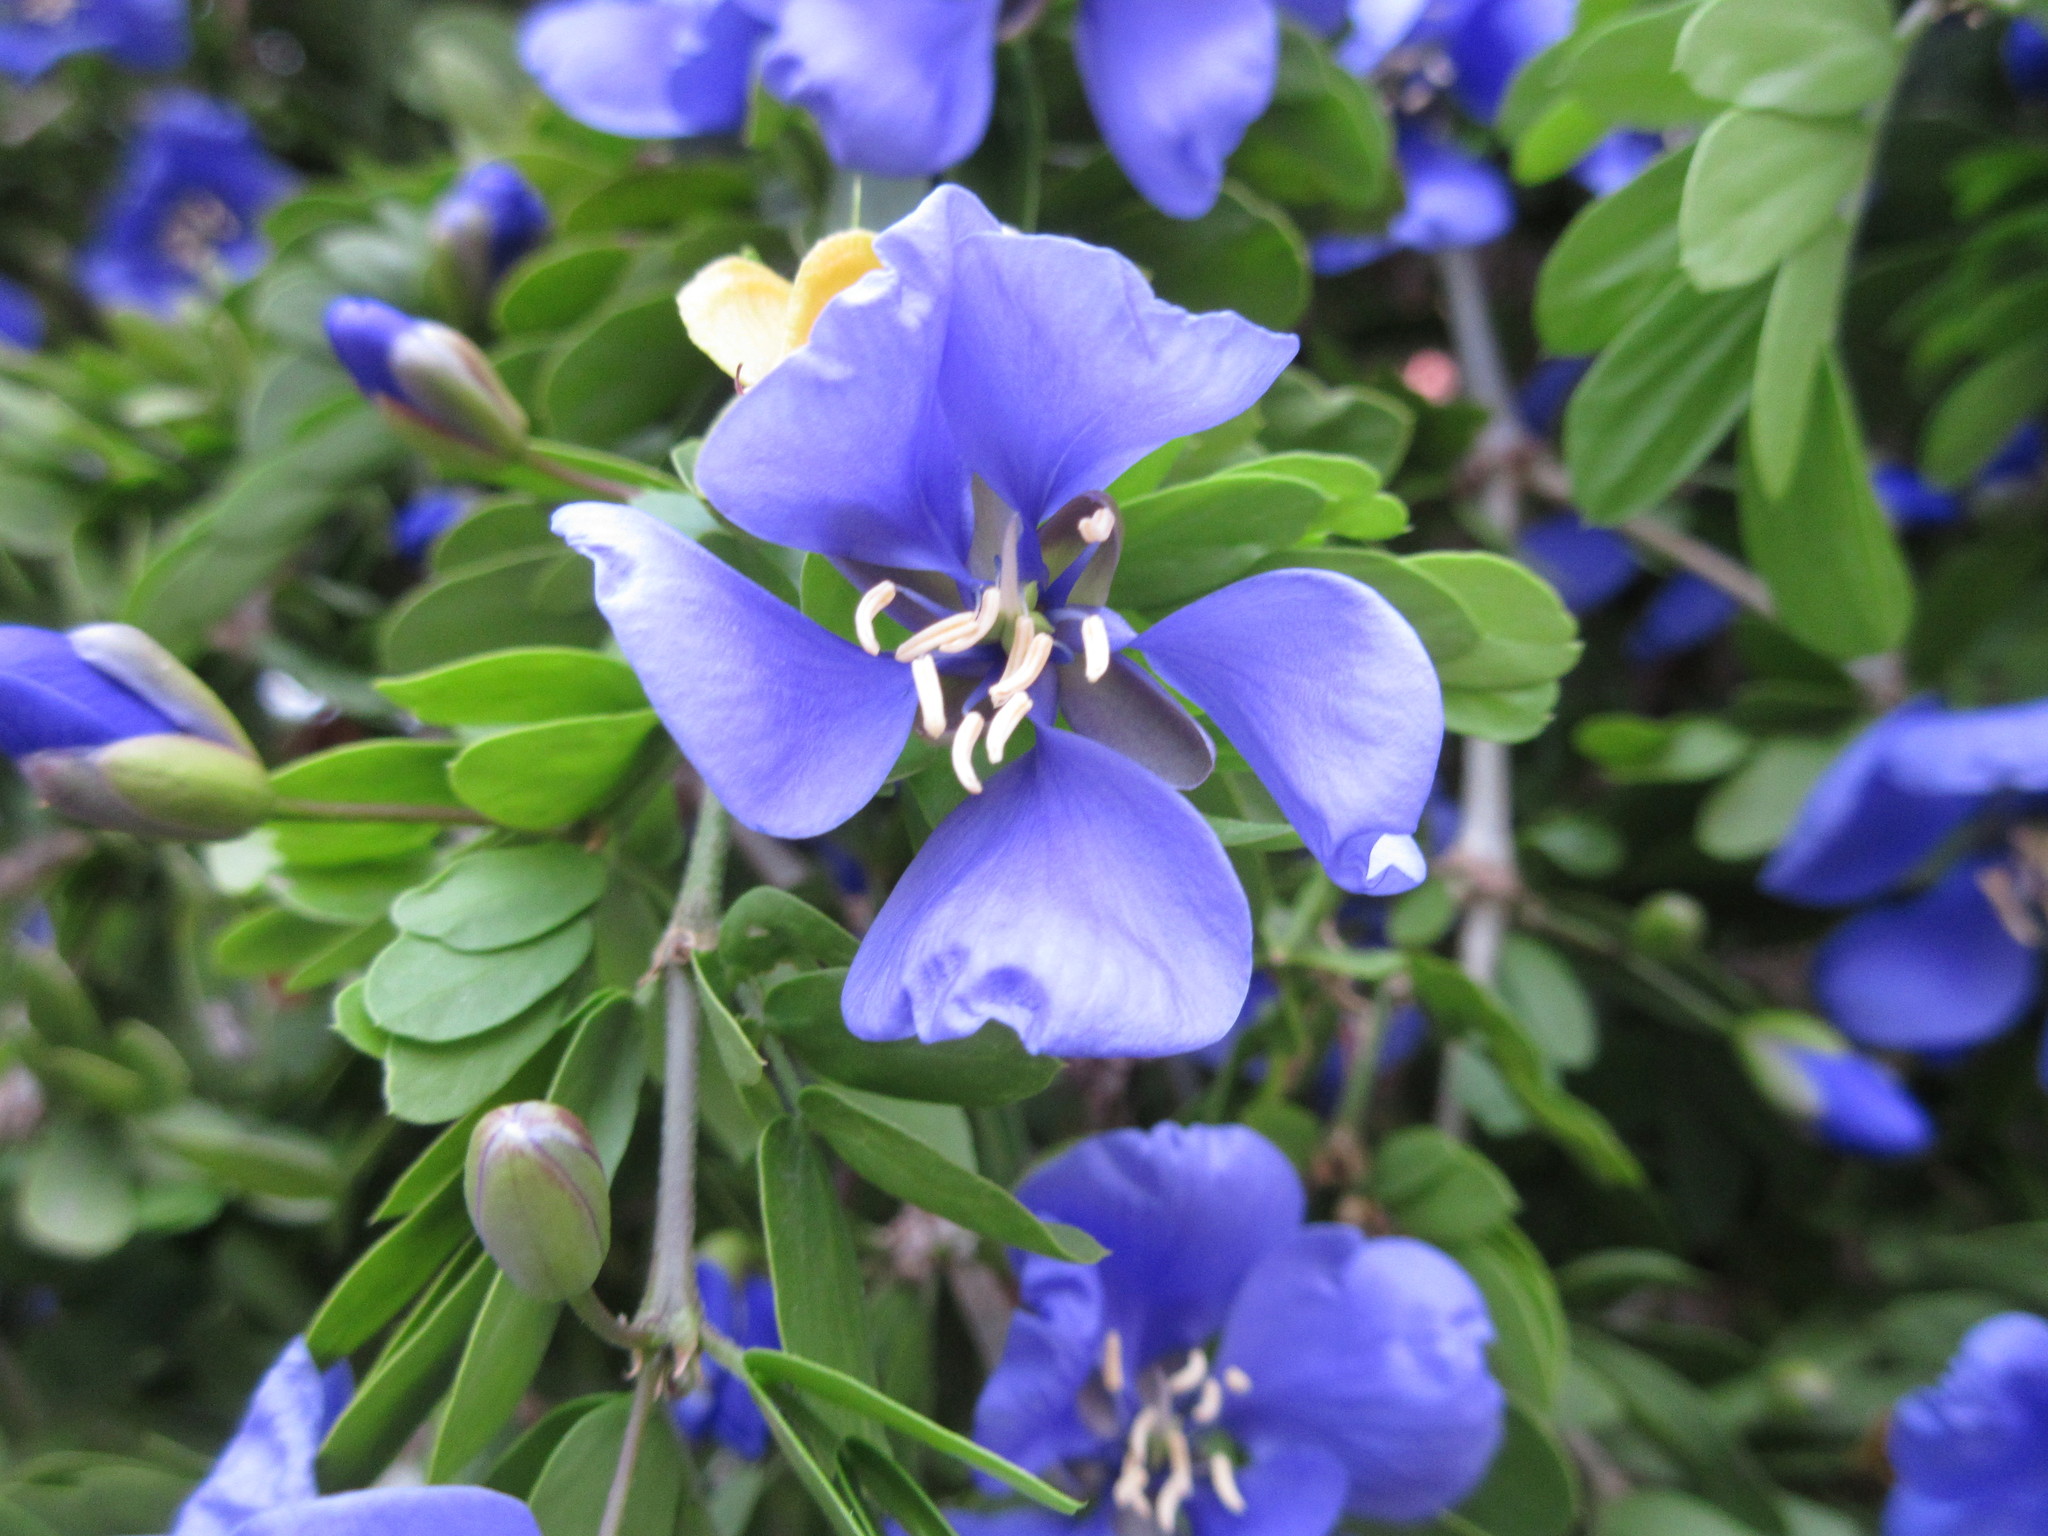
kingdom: Plantae
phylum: Tracheophyta
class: Magnoliopsida
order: Zygophyllales
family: Zygophyllaceae
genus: Guaiacum
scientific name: Guaiacum coulteri
